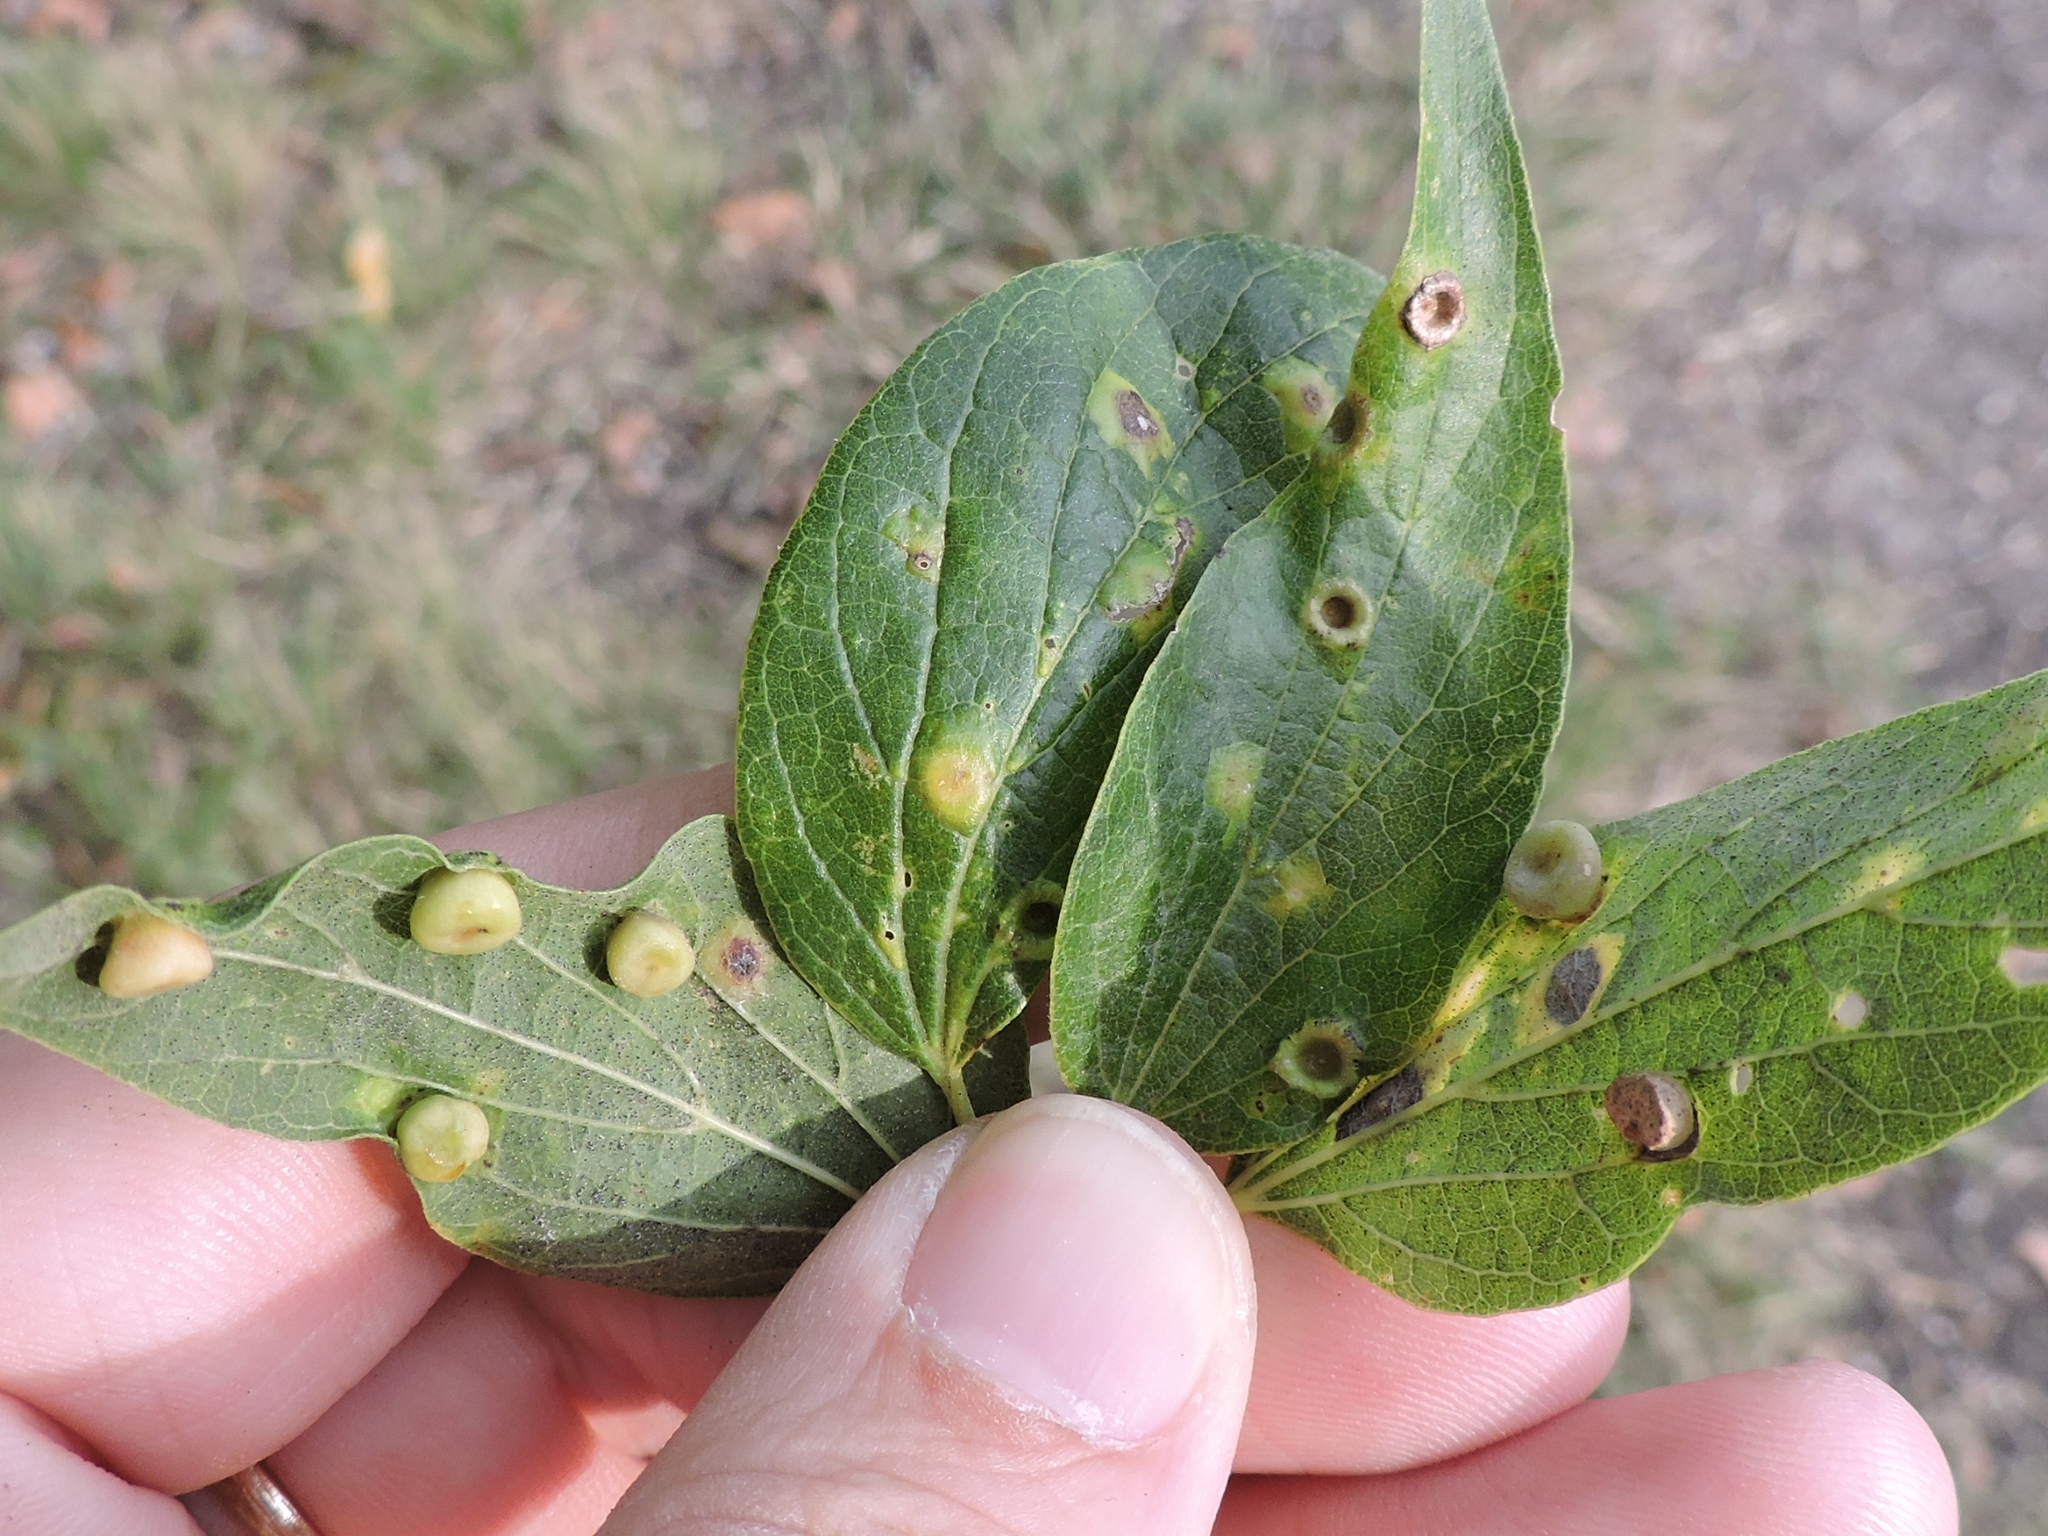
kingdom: Animalia
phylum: Arthropoda
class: Insecta
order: Hemiptera
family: Aphalaridae
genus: Pachypsylla
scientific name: Pachypsylla celtidismamma
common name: Hackberry nipplegall psyllid
